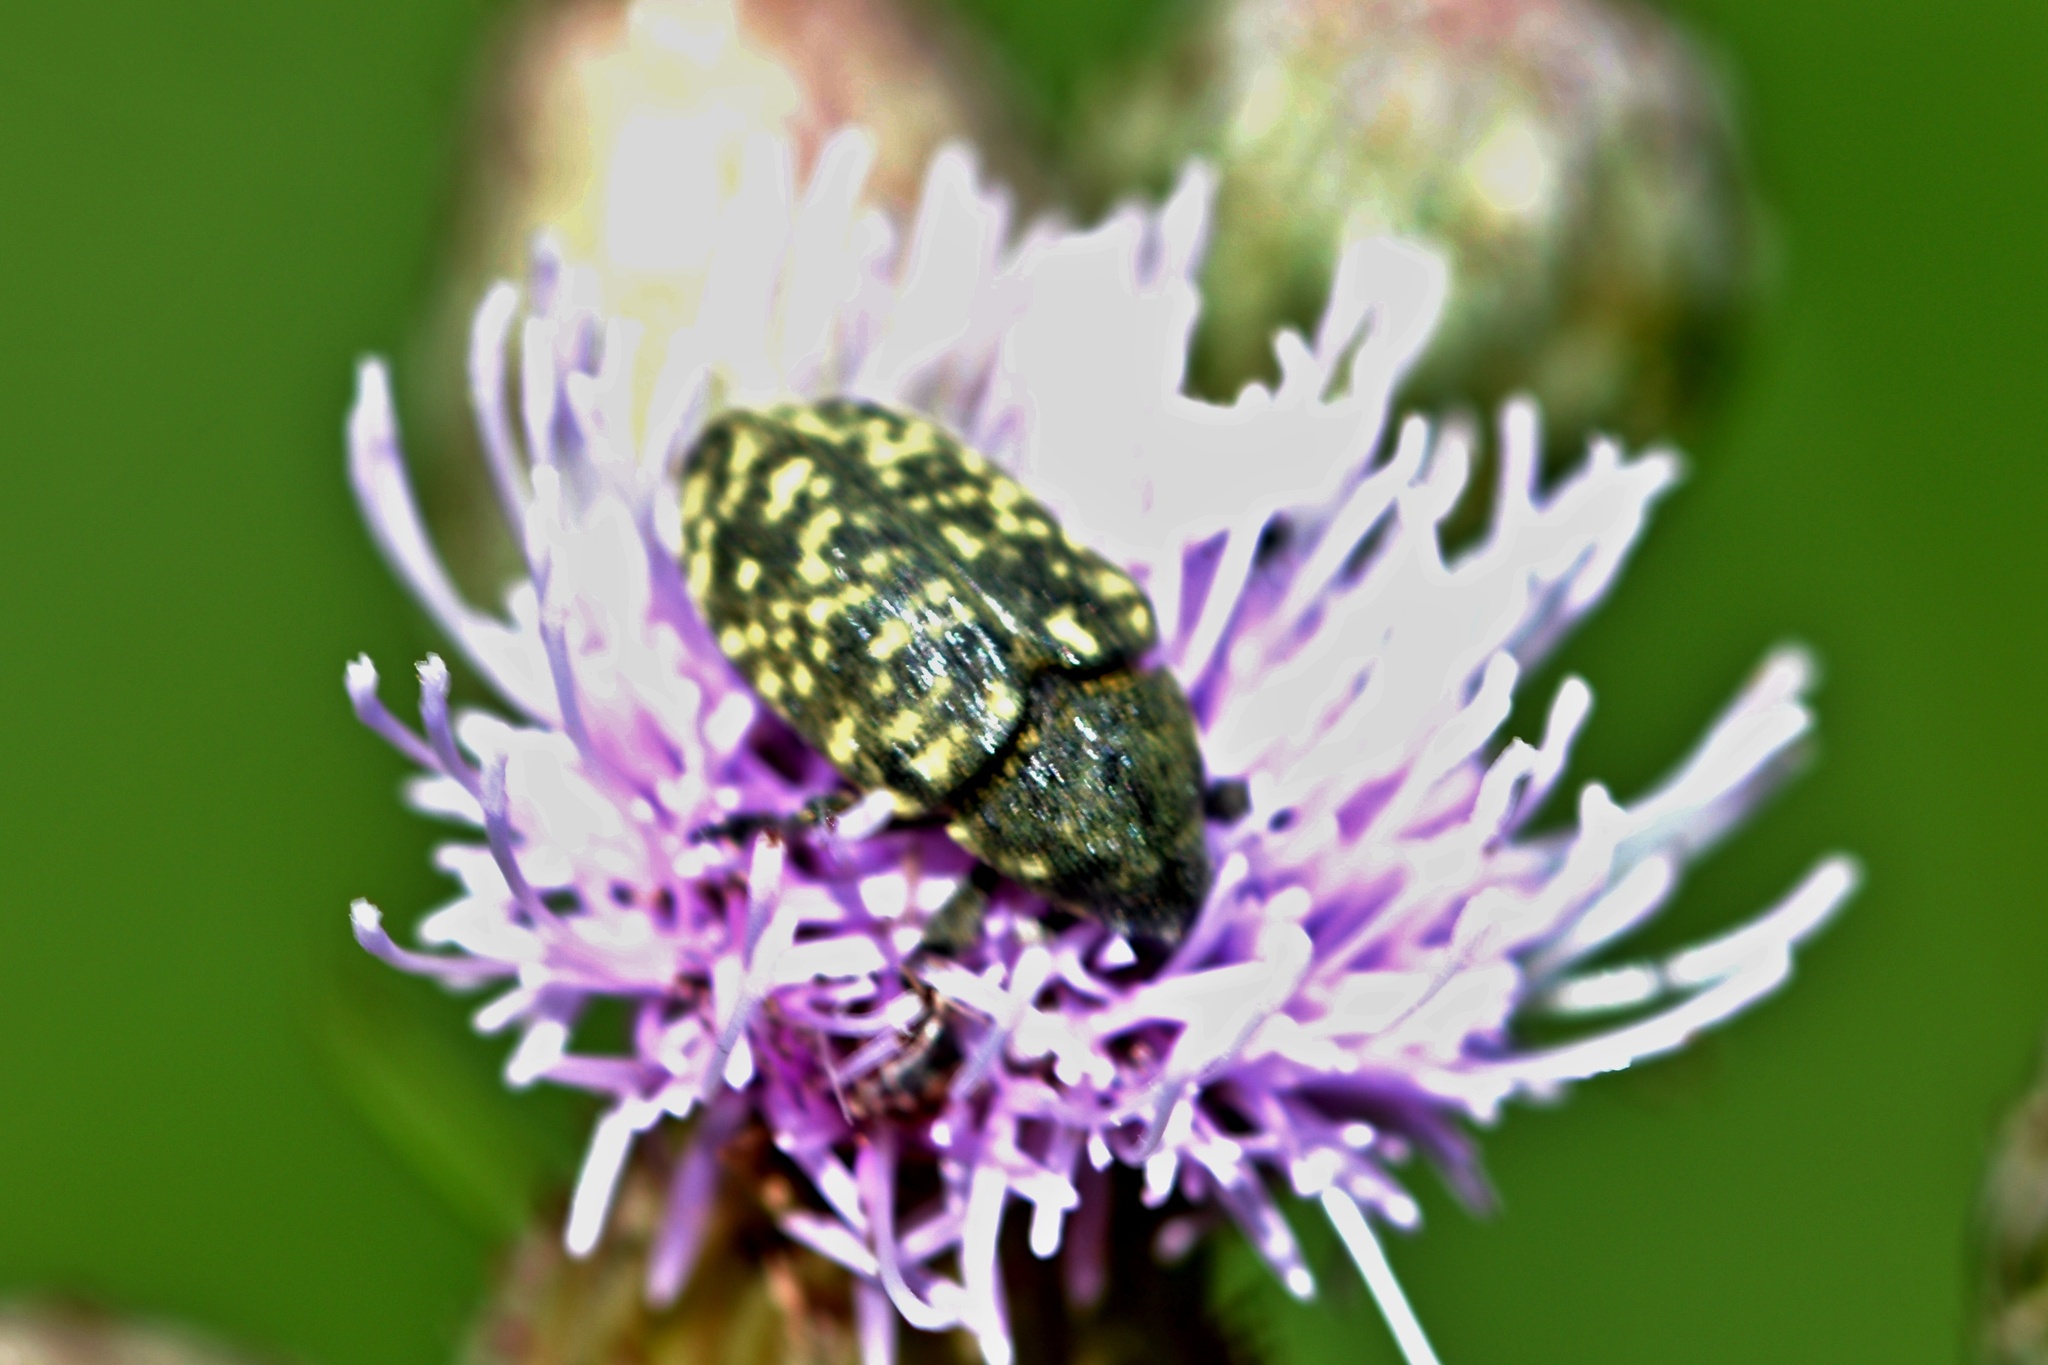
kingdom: Animalia
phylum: Arthropoda
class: Insecta
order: Coleoptera
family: Curculionidae
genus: Larinus
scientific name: Larinus turbinatus
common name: Weevil
